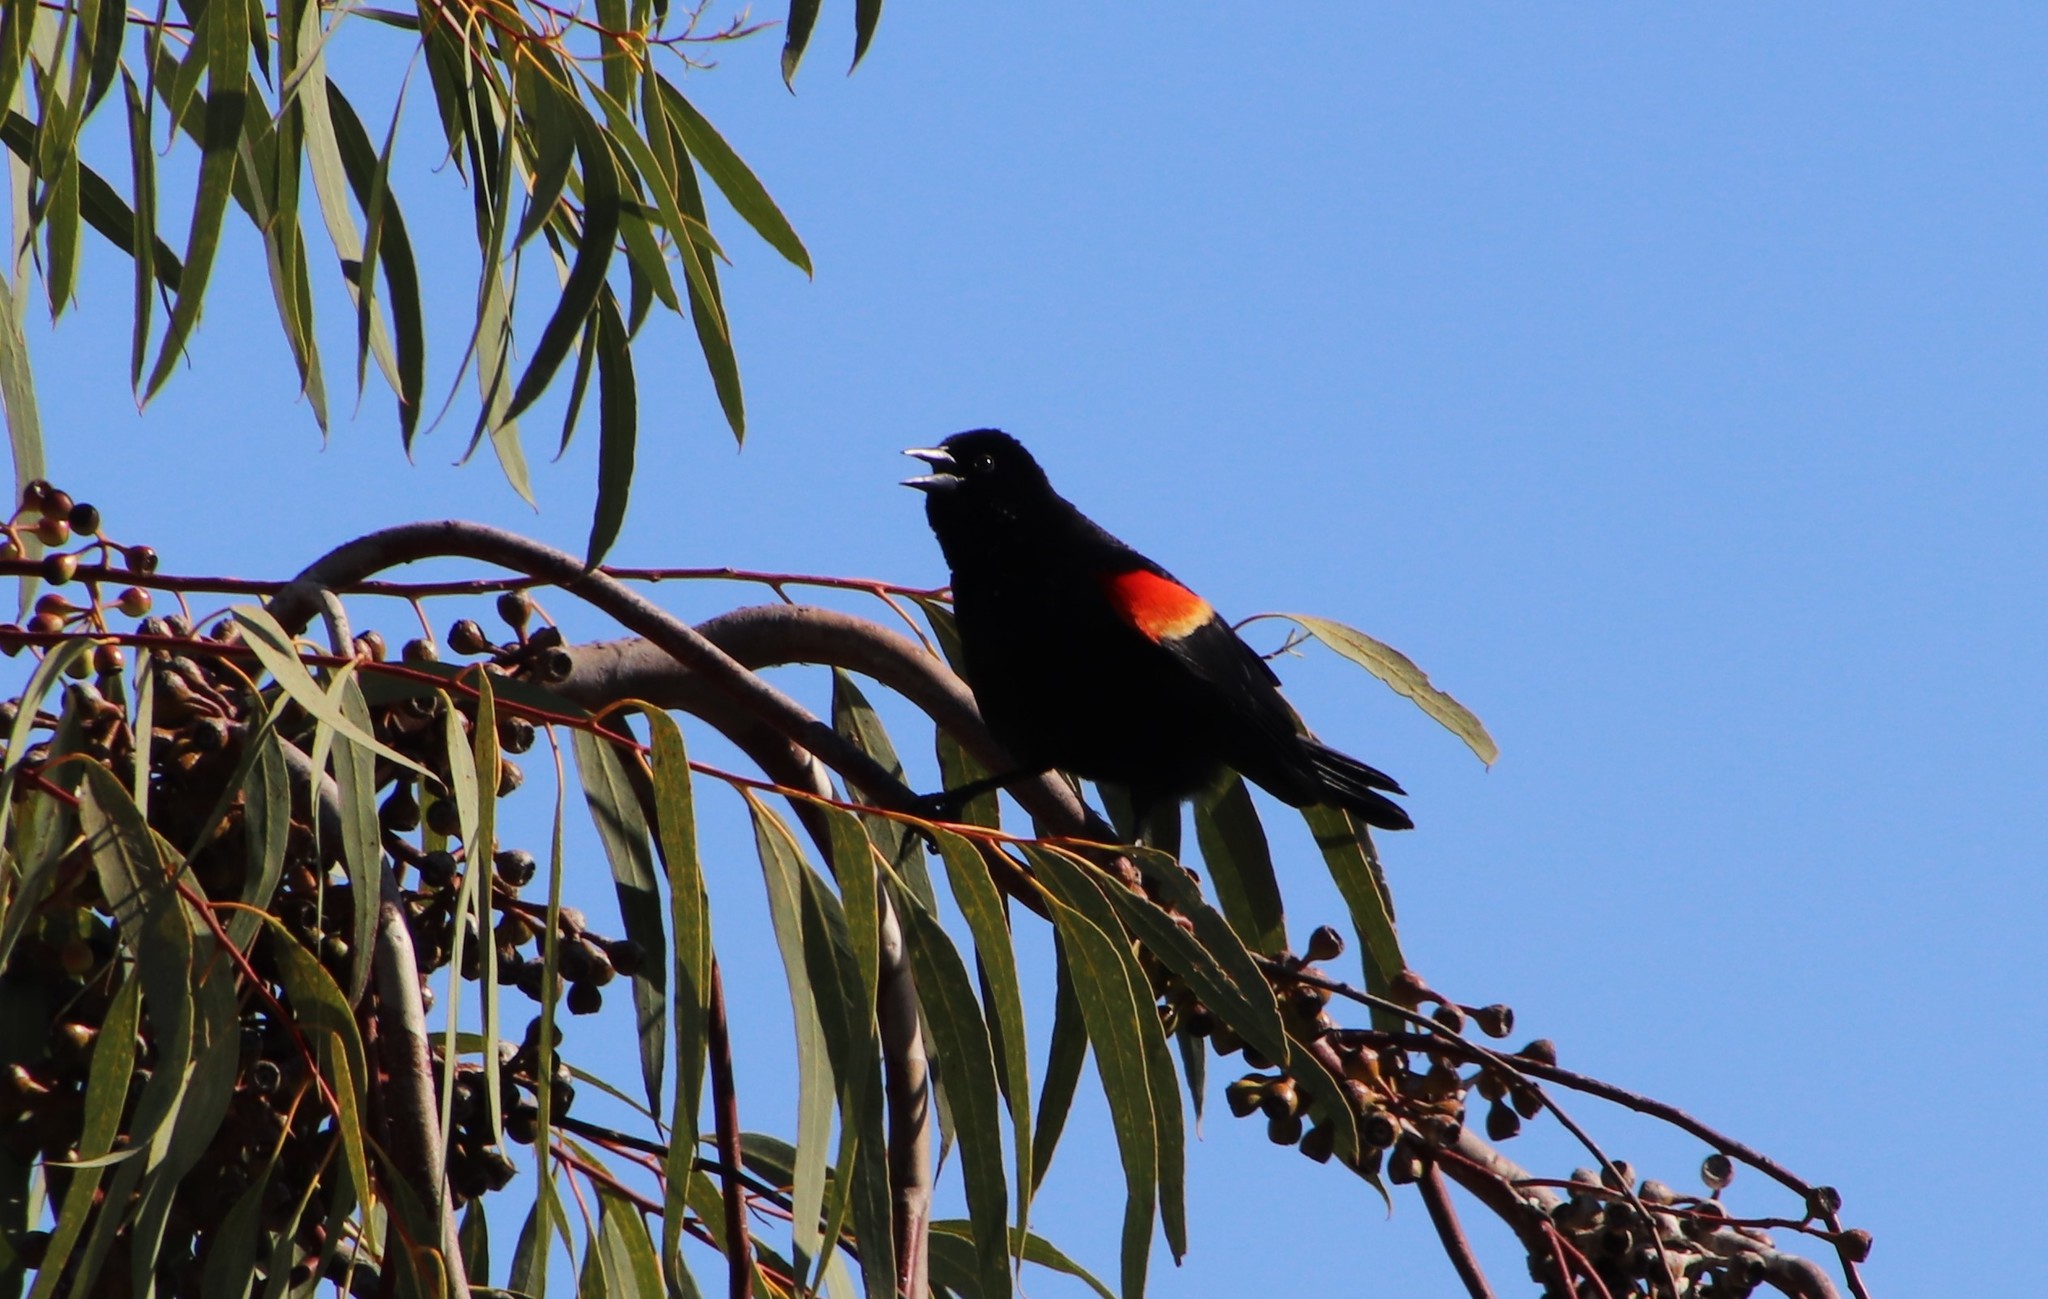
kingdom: Animalia
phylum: Chordata
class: Aves
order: Passeriformes
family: Icteridae
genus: Agelaius
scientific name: Agelaius phoeniceus
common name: Red-winged blackbird
